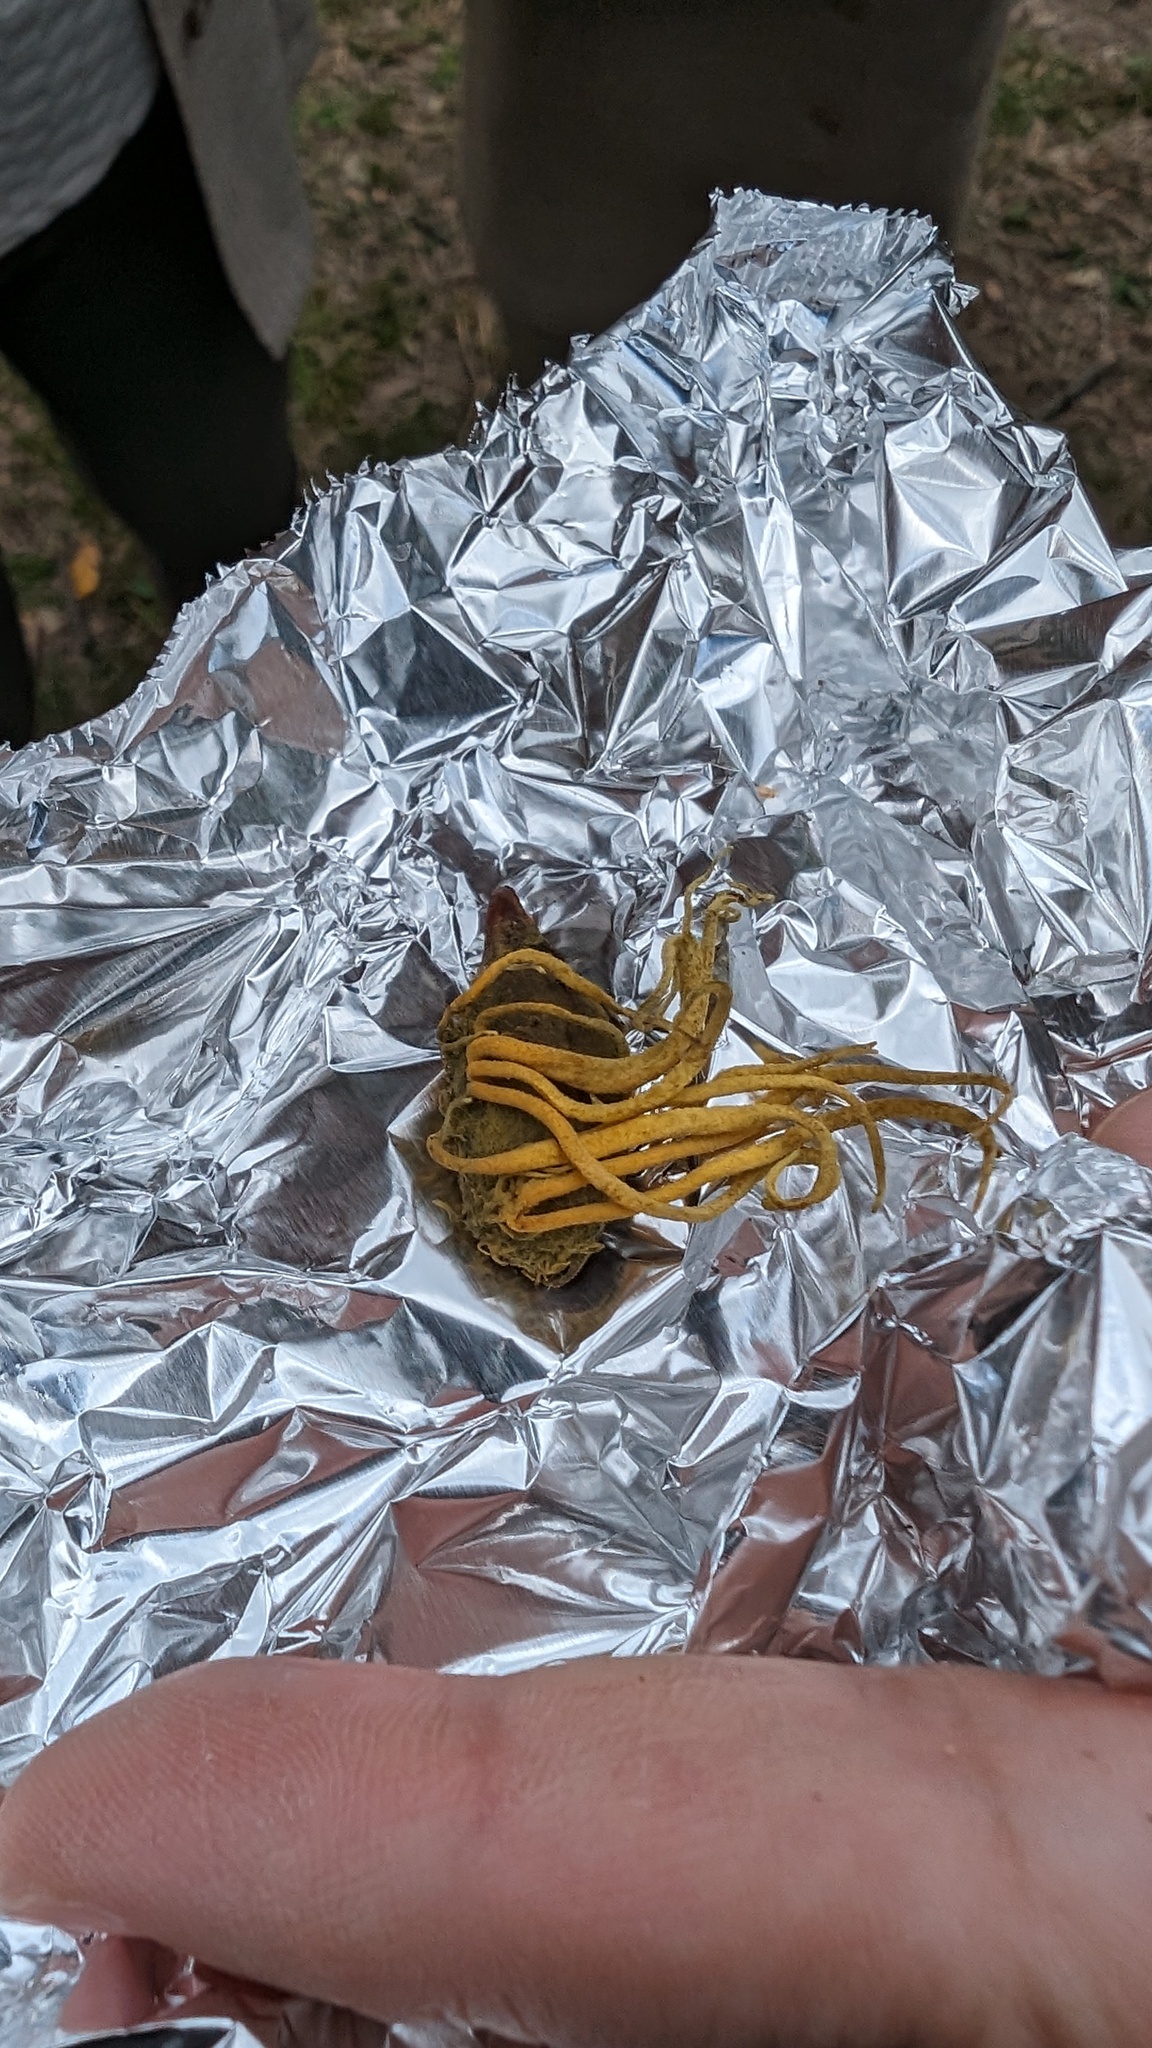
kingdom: Fungi
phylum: Ascomycota
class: Eurotiomycetes
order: Eurotiales
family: Aspergillaceae
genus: Penicilliopsis
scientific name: Penicilliopsis clavariiformis
